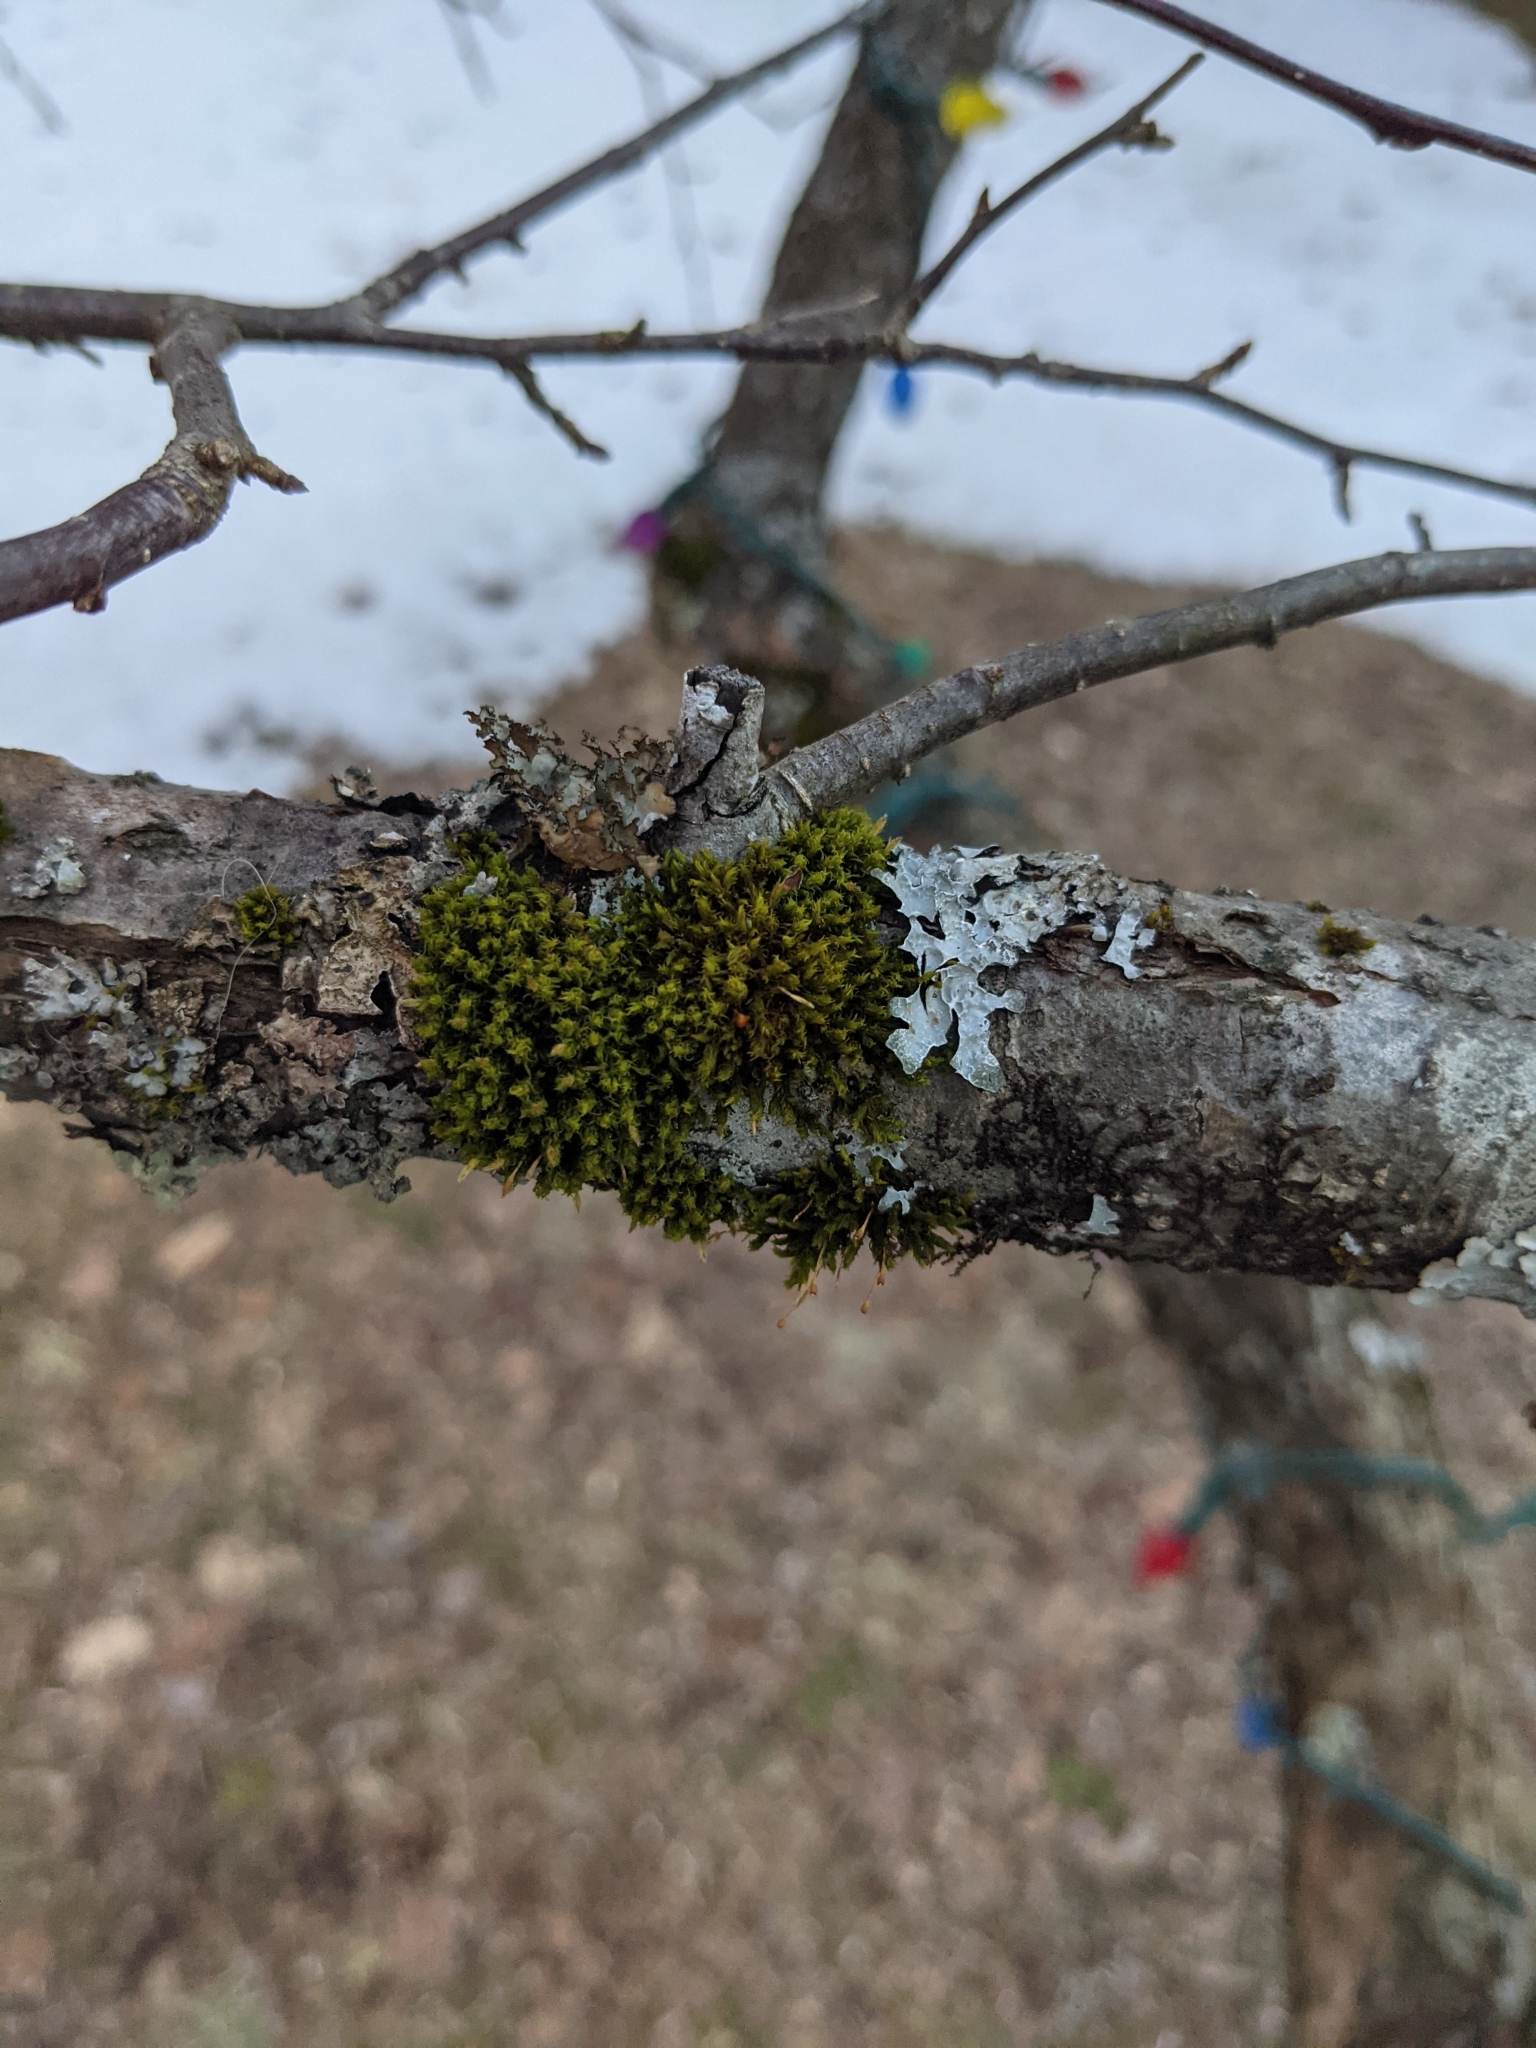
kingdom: Plantae
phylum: Bryophyta
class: Bryopsida
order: Orthotrichales
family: Orthotrichaceae
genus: Ulota
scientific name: Ulota crispa
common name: Crisped pincushion moss
